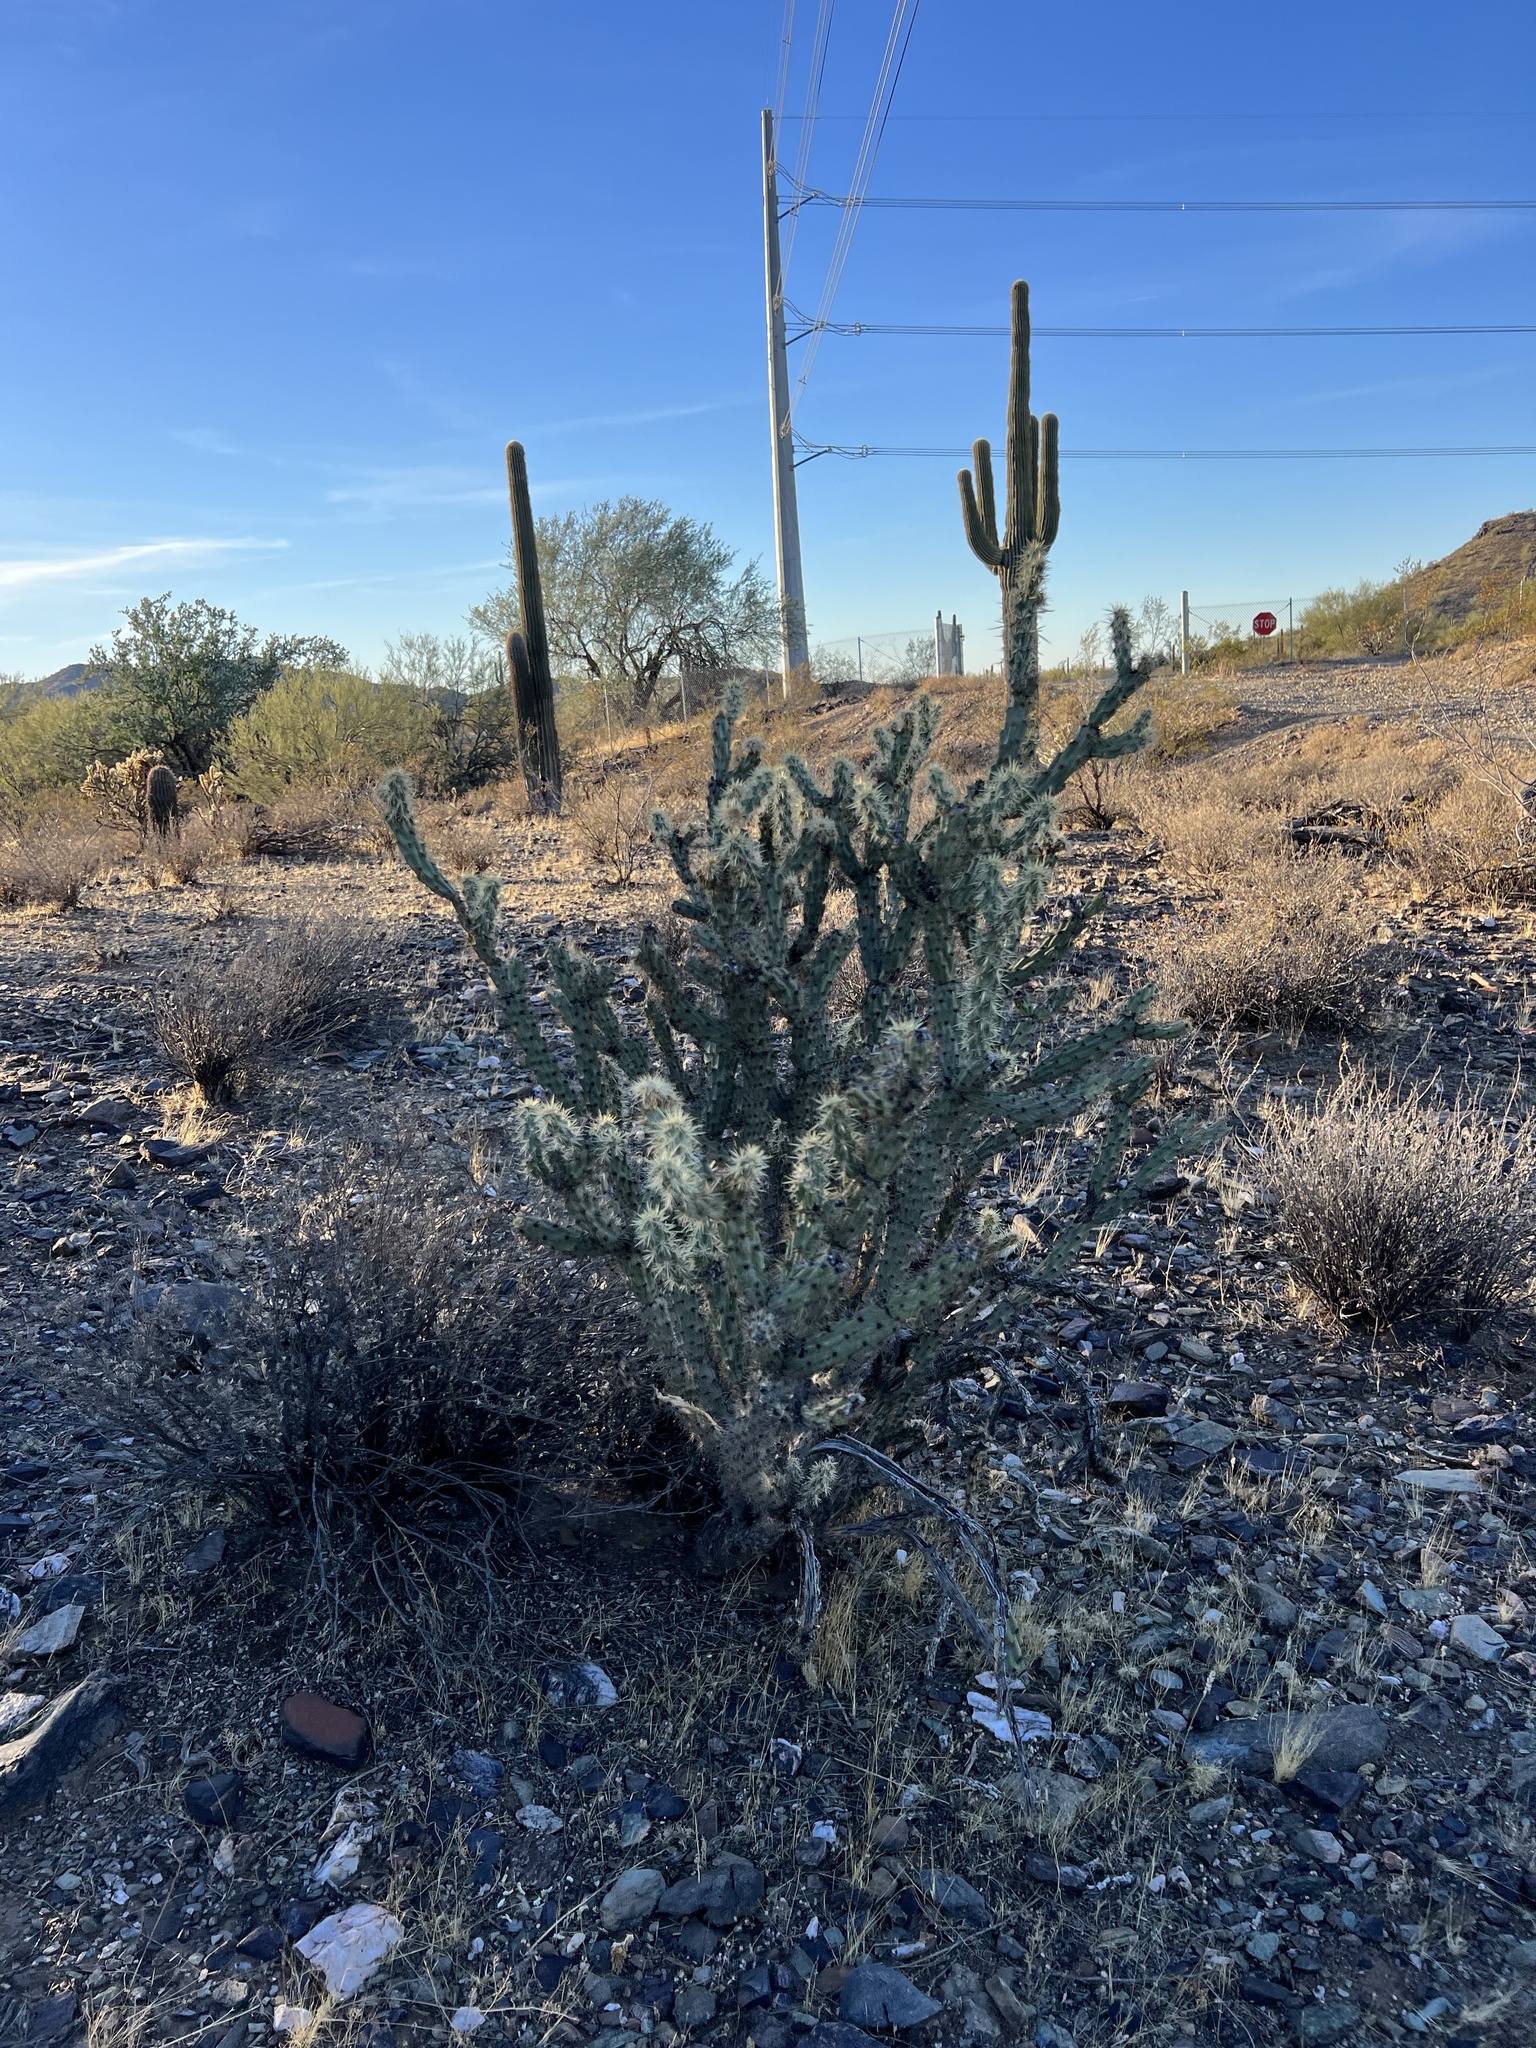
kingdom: Plantae
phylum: Tracheophyta
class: Magnoliopsida
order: Caryophyllales
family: Cactaceae
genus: Cylindropuntia
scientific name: Cylindropuntia acanthocarpa
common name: Buckhorn cholla
